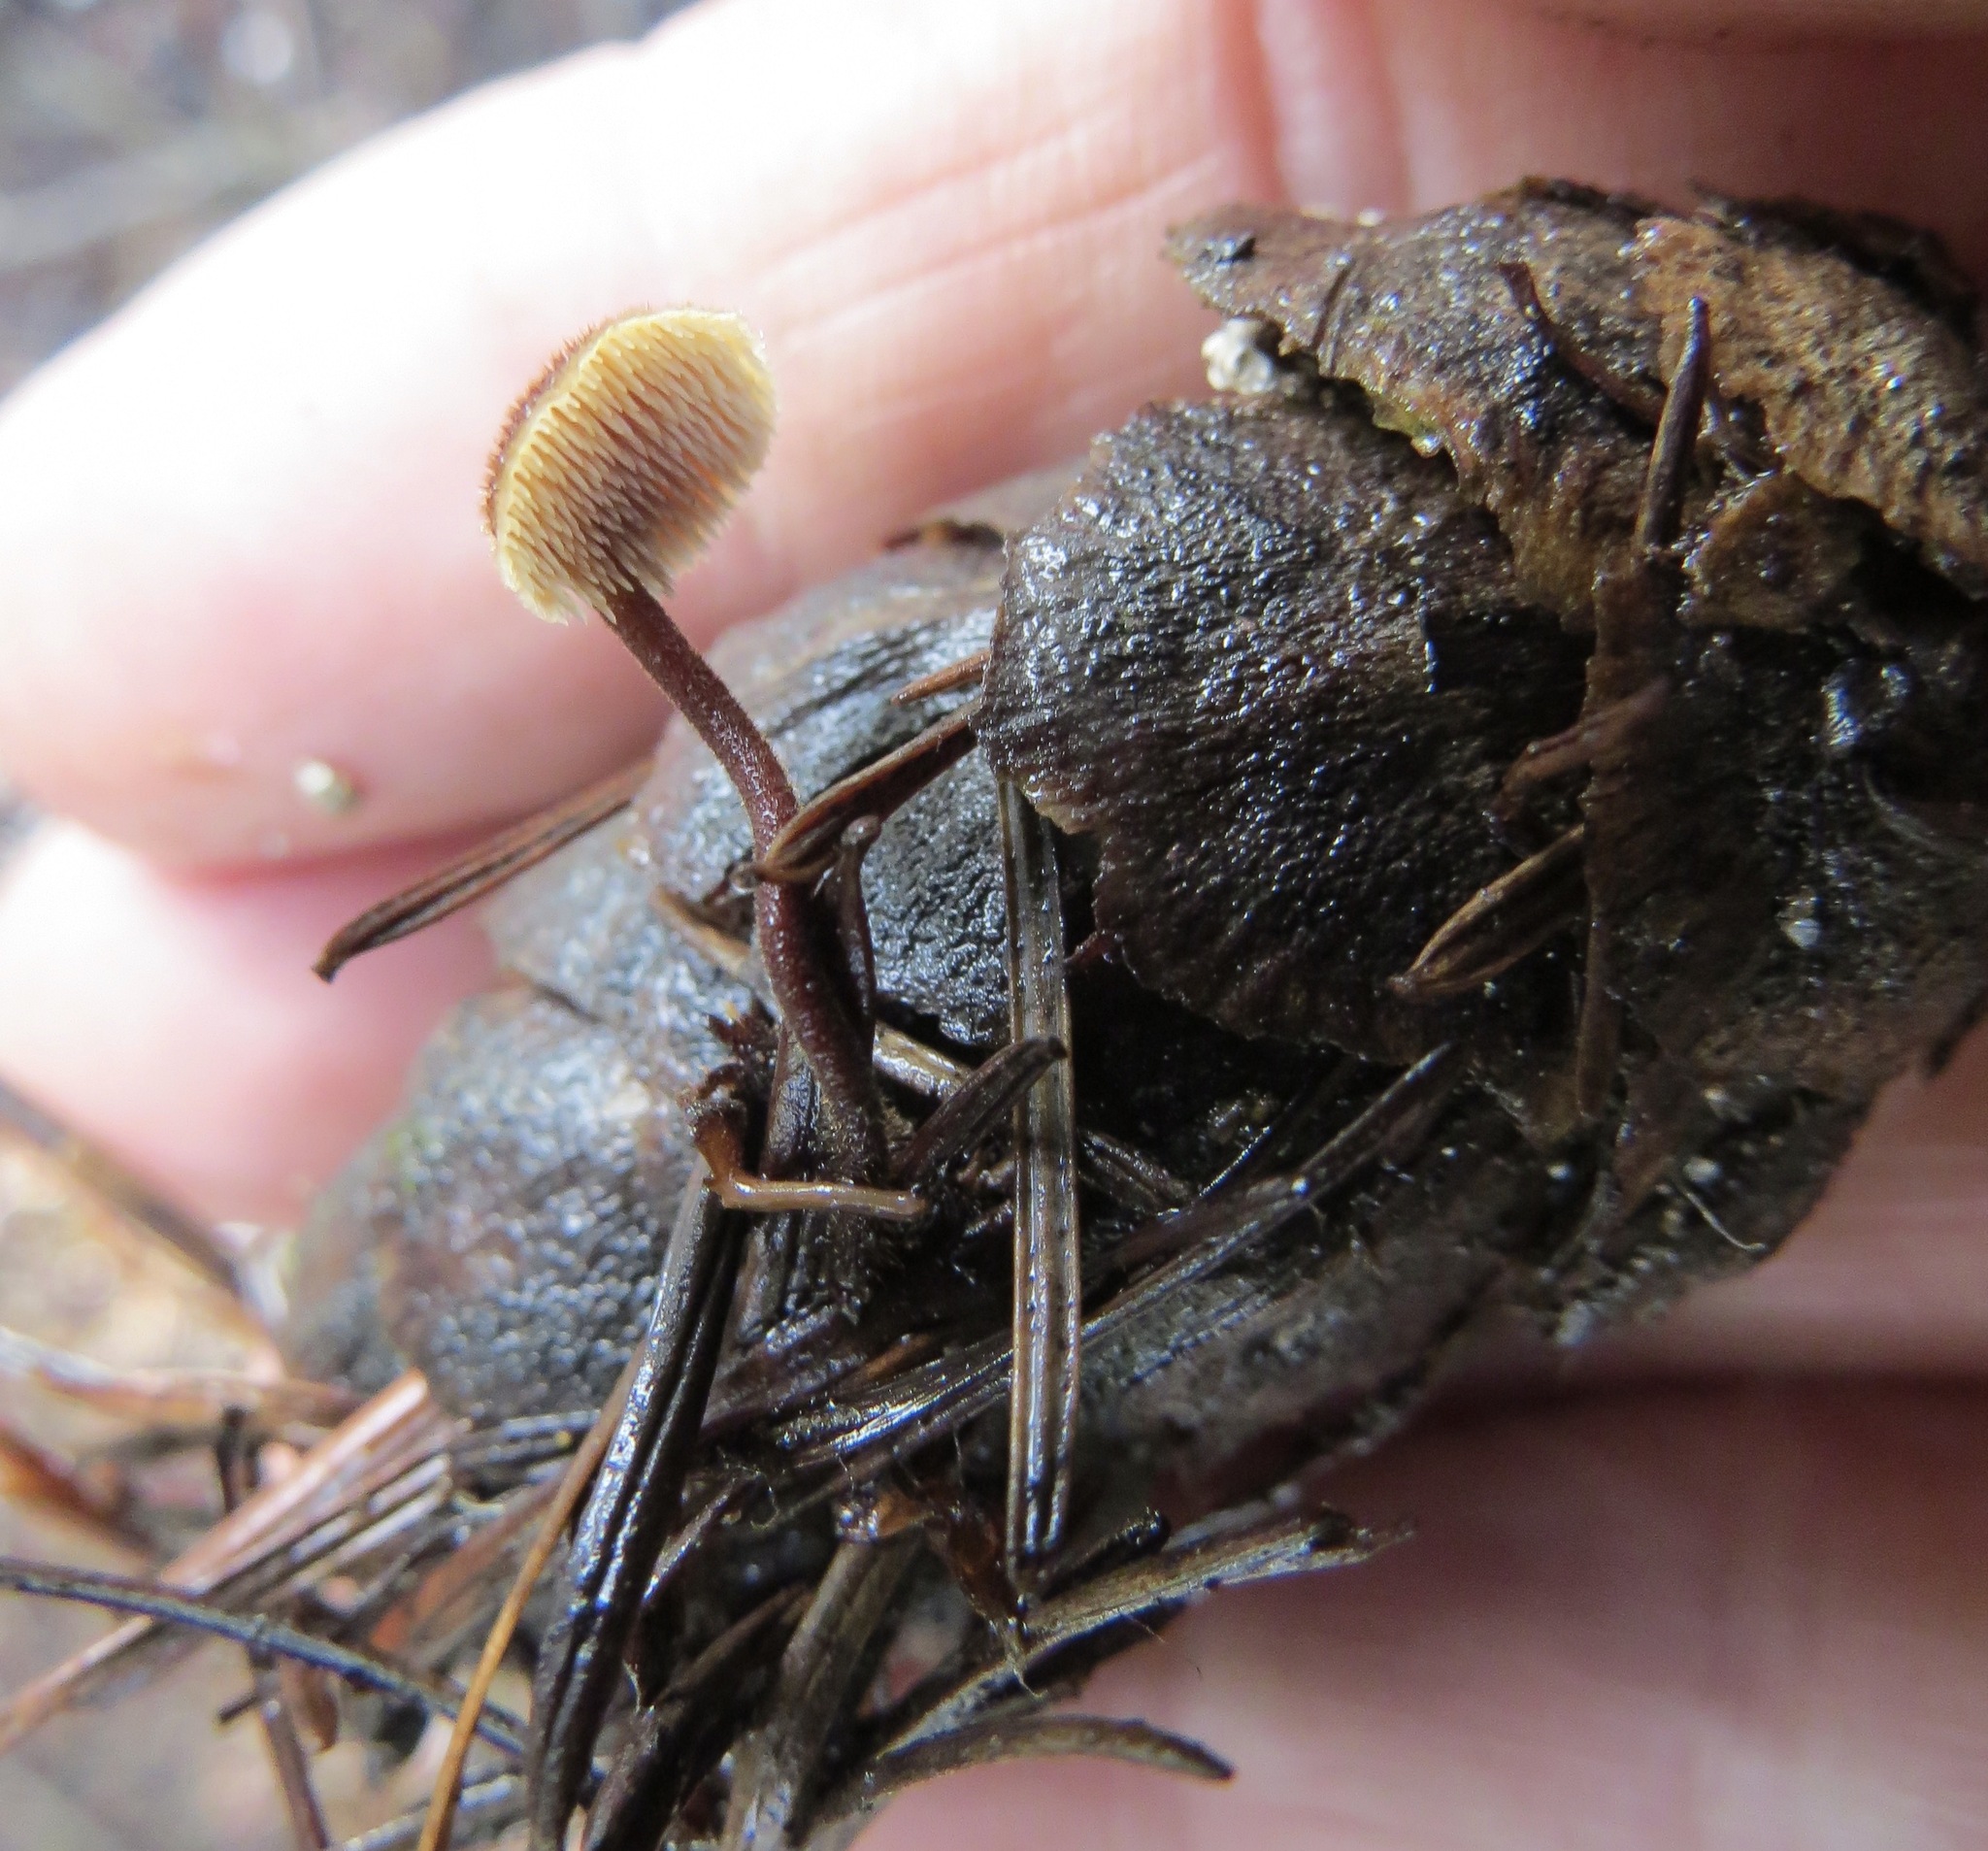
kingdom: Fungi
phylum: Basidiomycota
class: Agaricomycetes
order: Russulales
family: Auriscalpiaceae
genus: Auriscalpium
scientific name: Auriscalpium vulgare
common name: Earpick fungus
